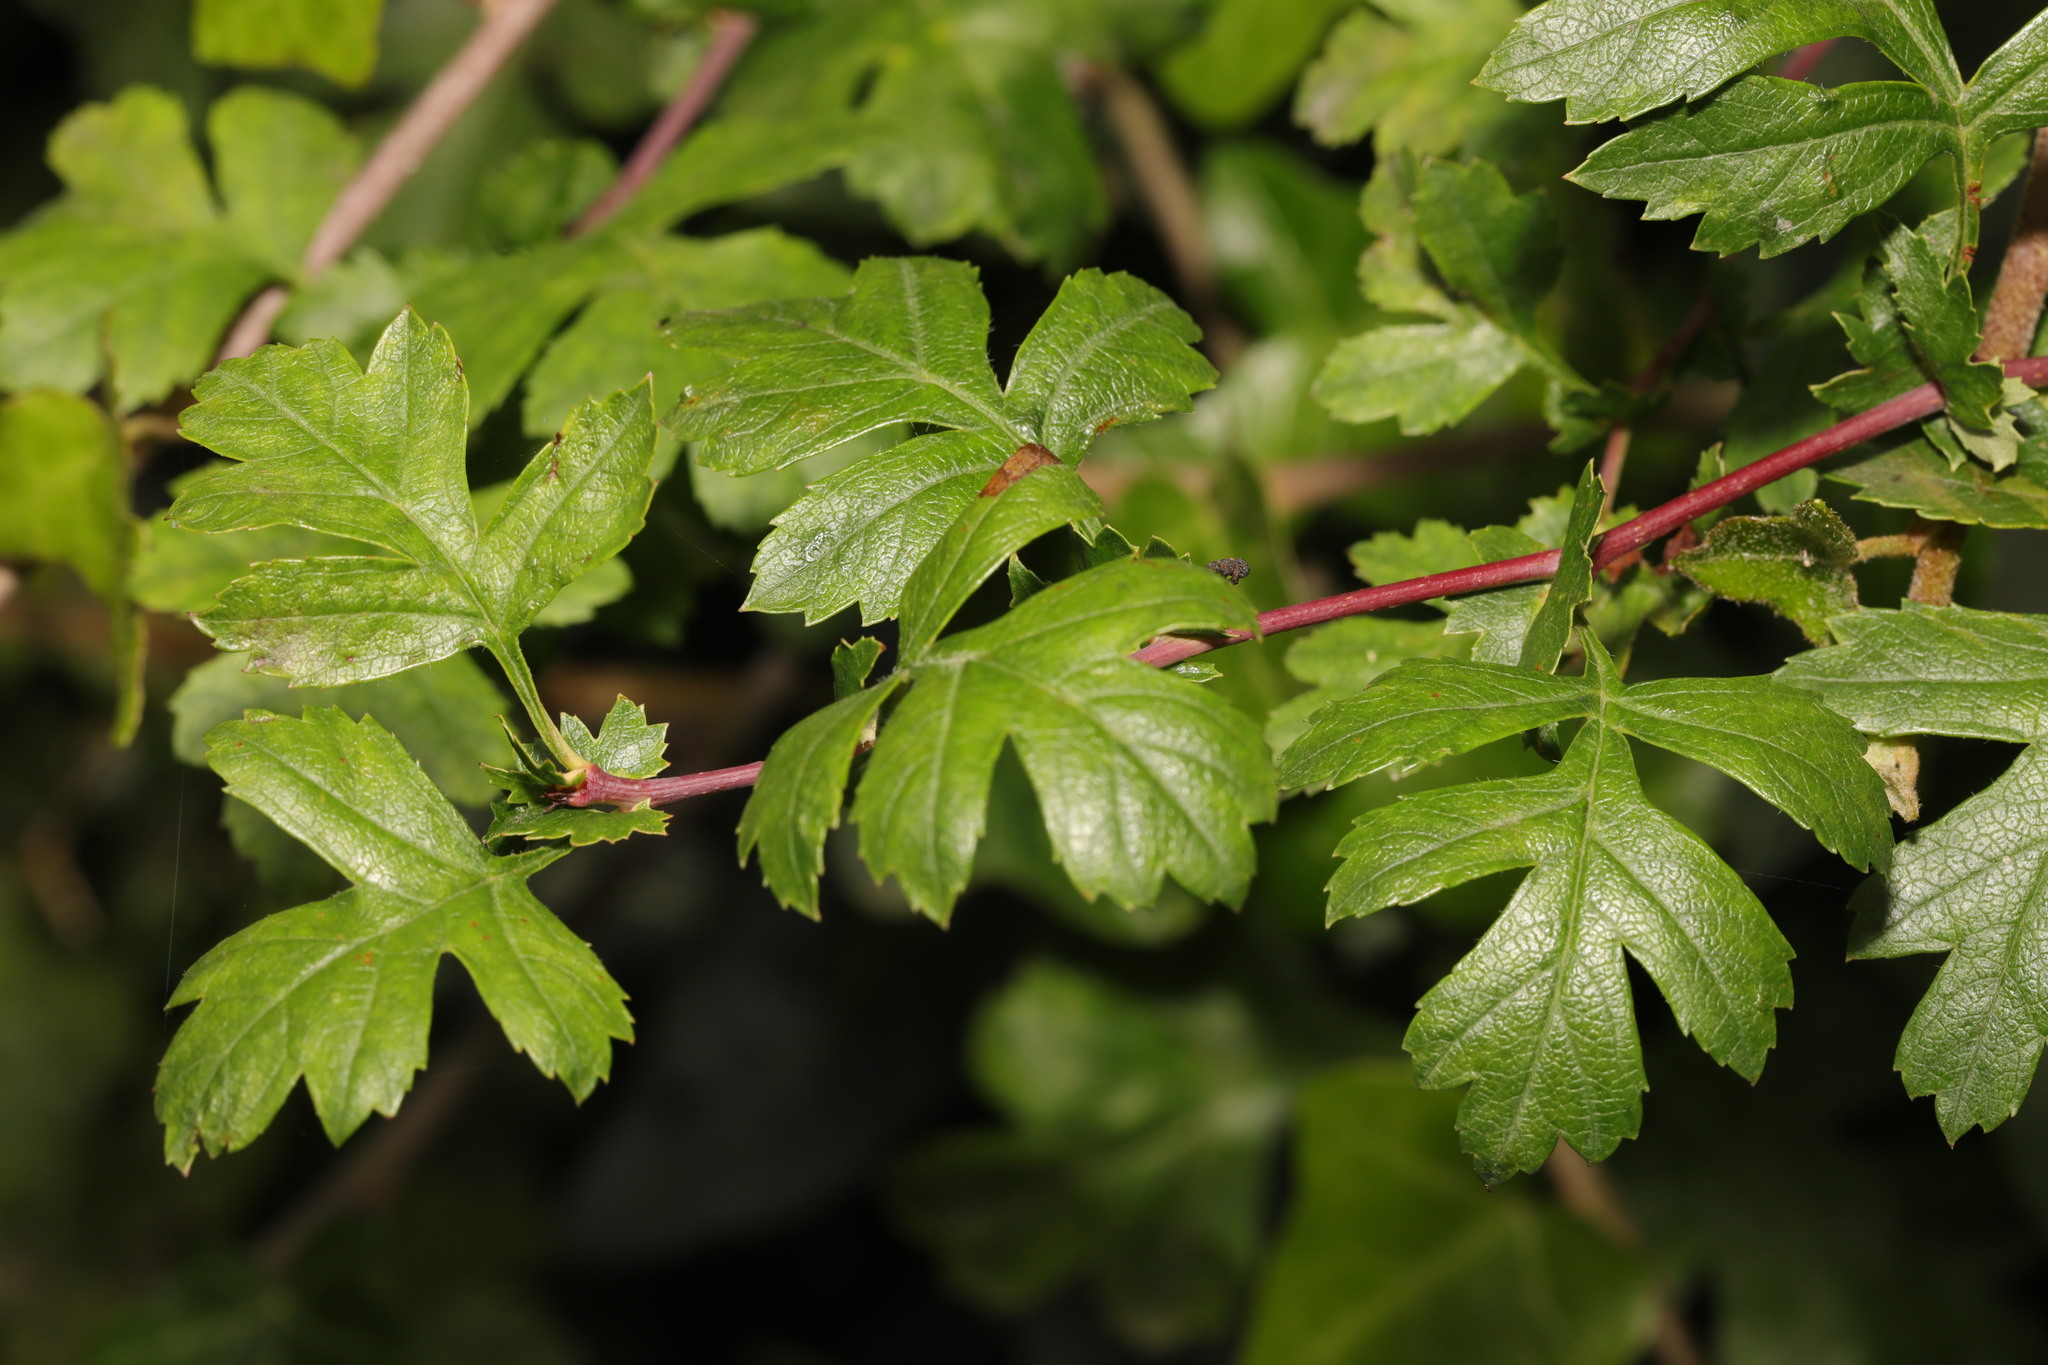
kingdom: Plantae
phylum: Tracheophyta
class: Magnoliopsida
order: Rosales
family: Rosaceae
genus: Crataegus
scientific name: Crataegus monogyna
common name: Hawthorn
